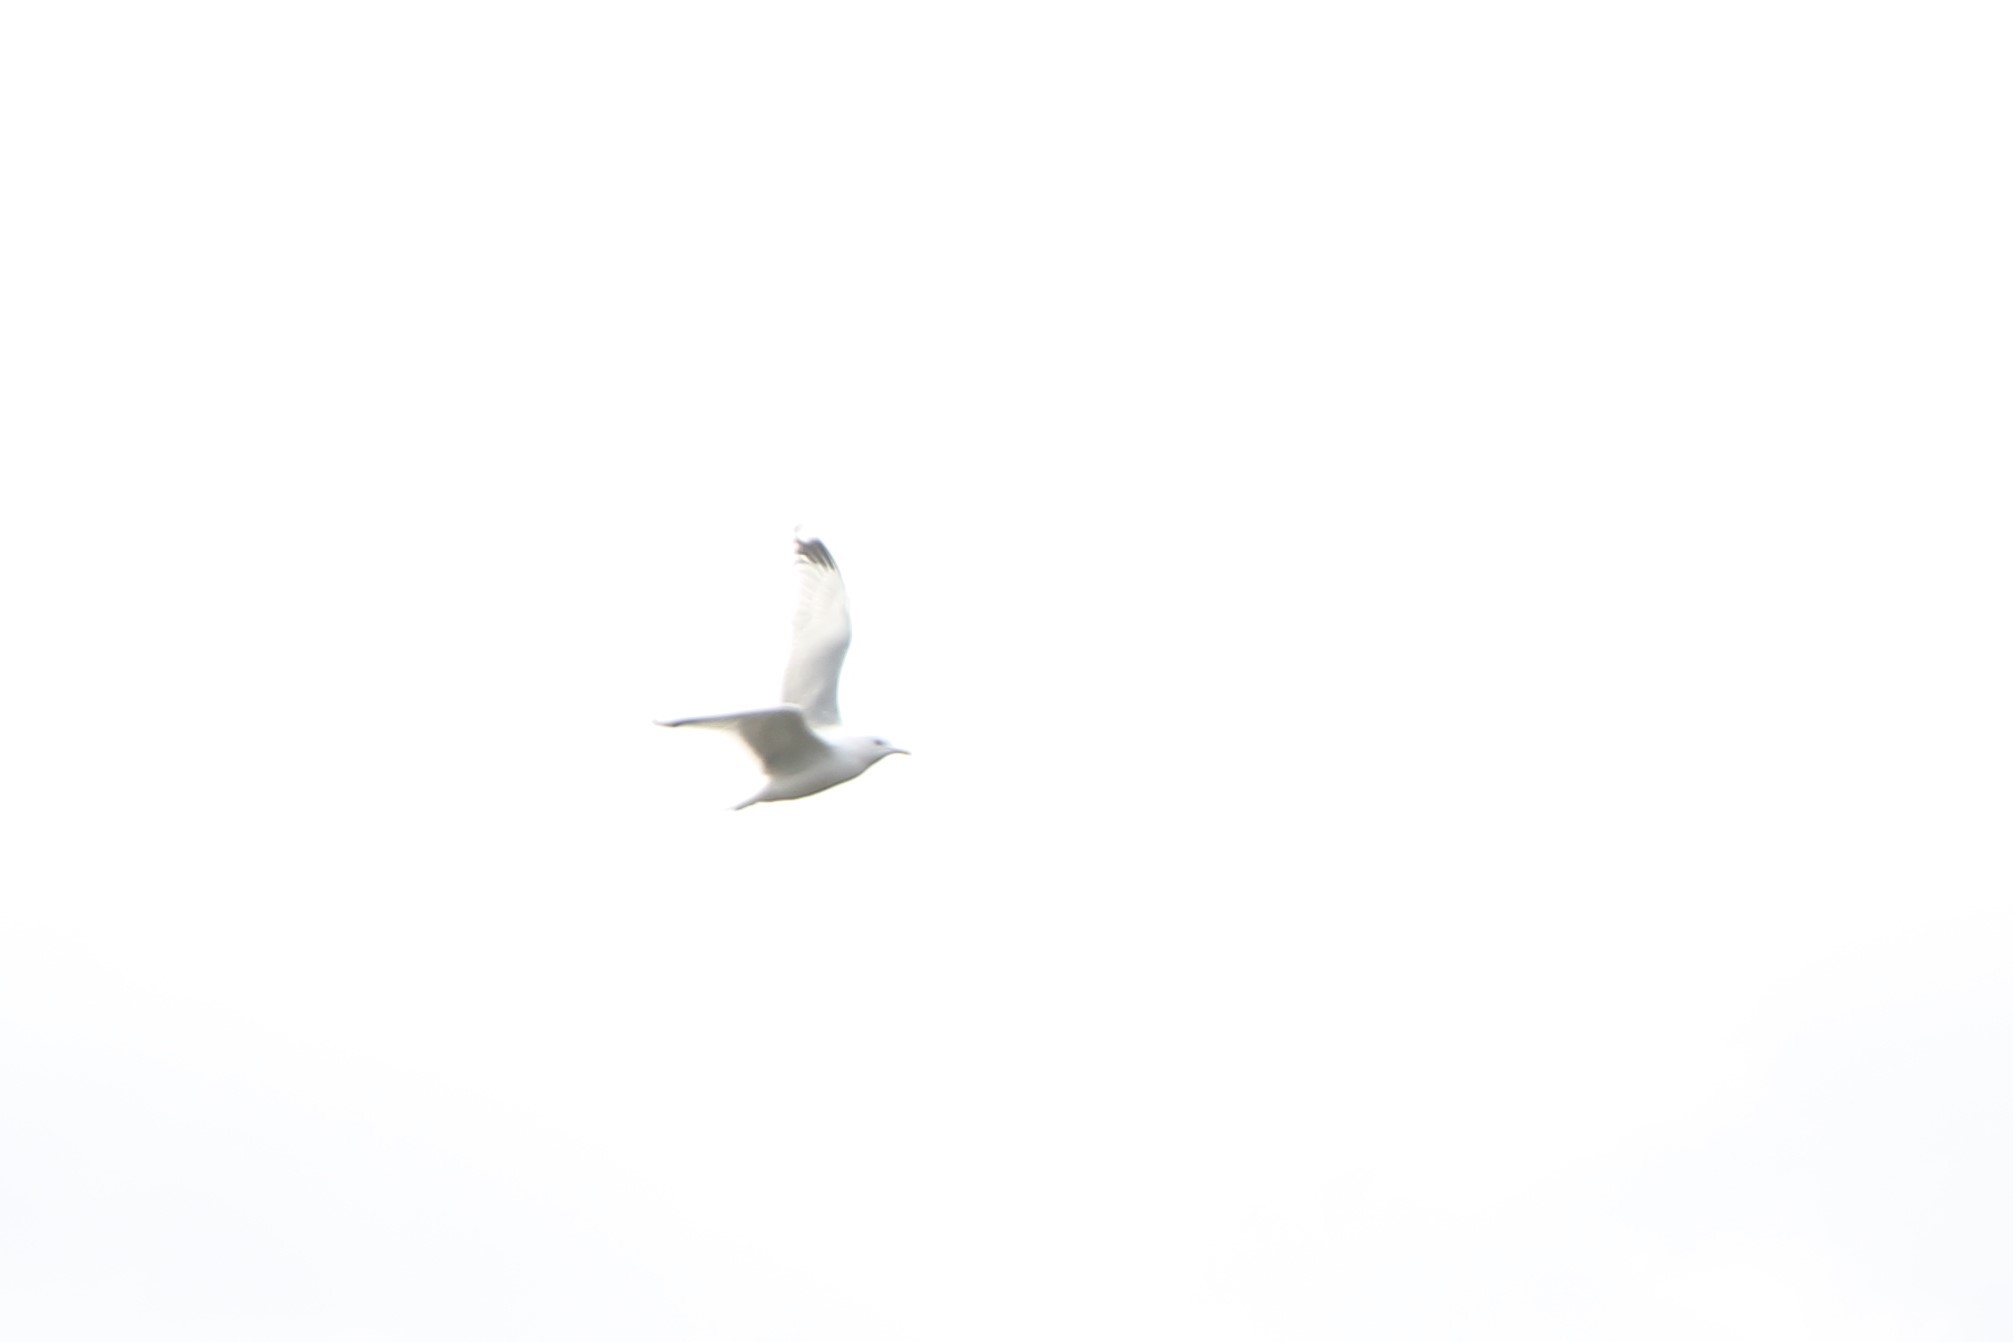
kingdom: Animalia
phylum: Chordata
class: Aves
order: Charadriiformes
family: Laridae
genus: Larus
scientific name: Larus canus
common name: Mew gull
